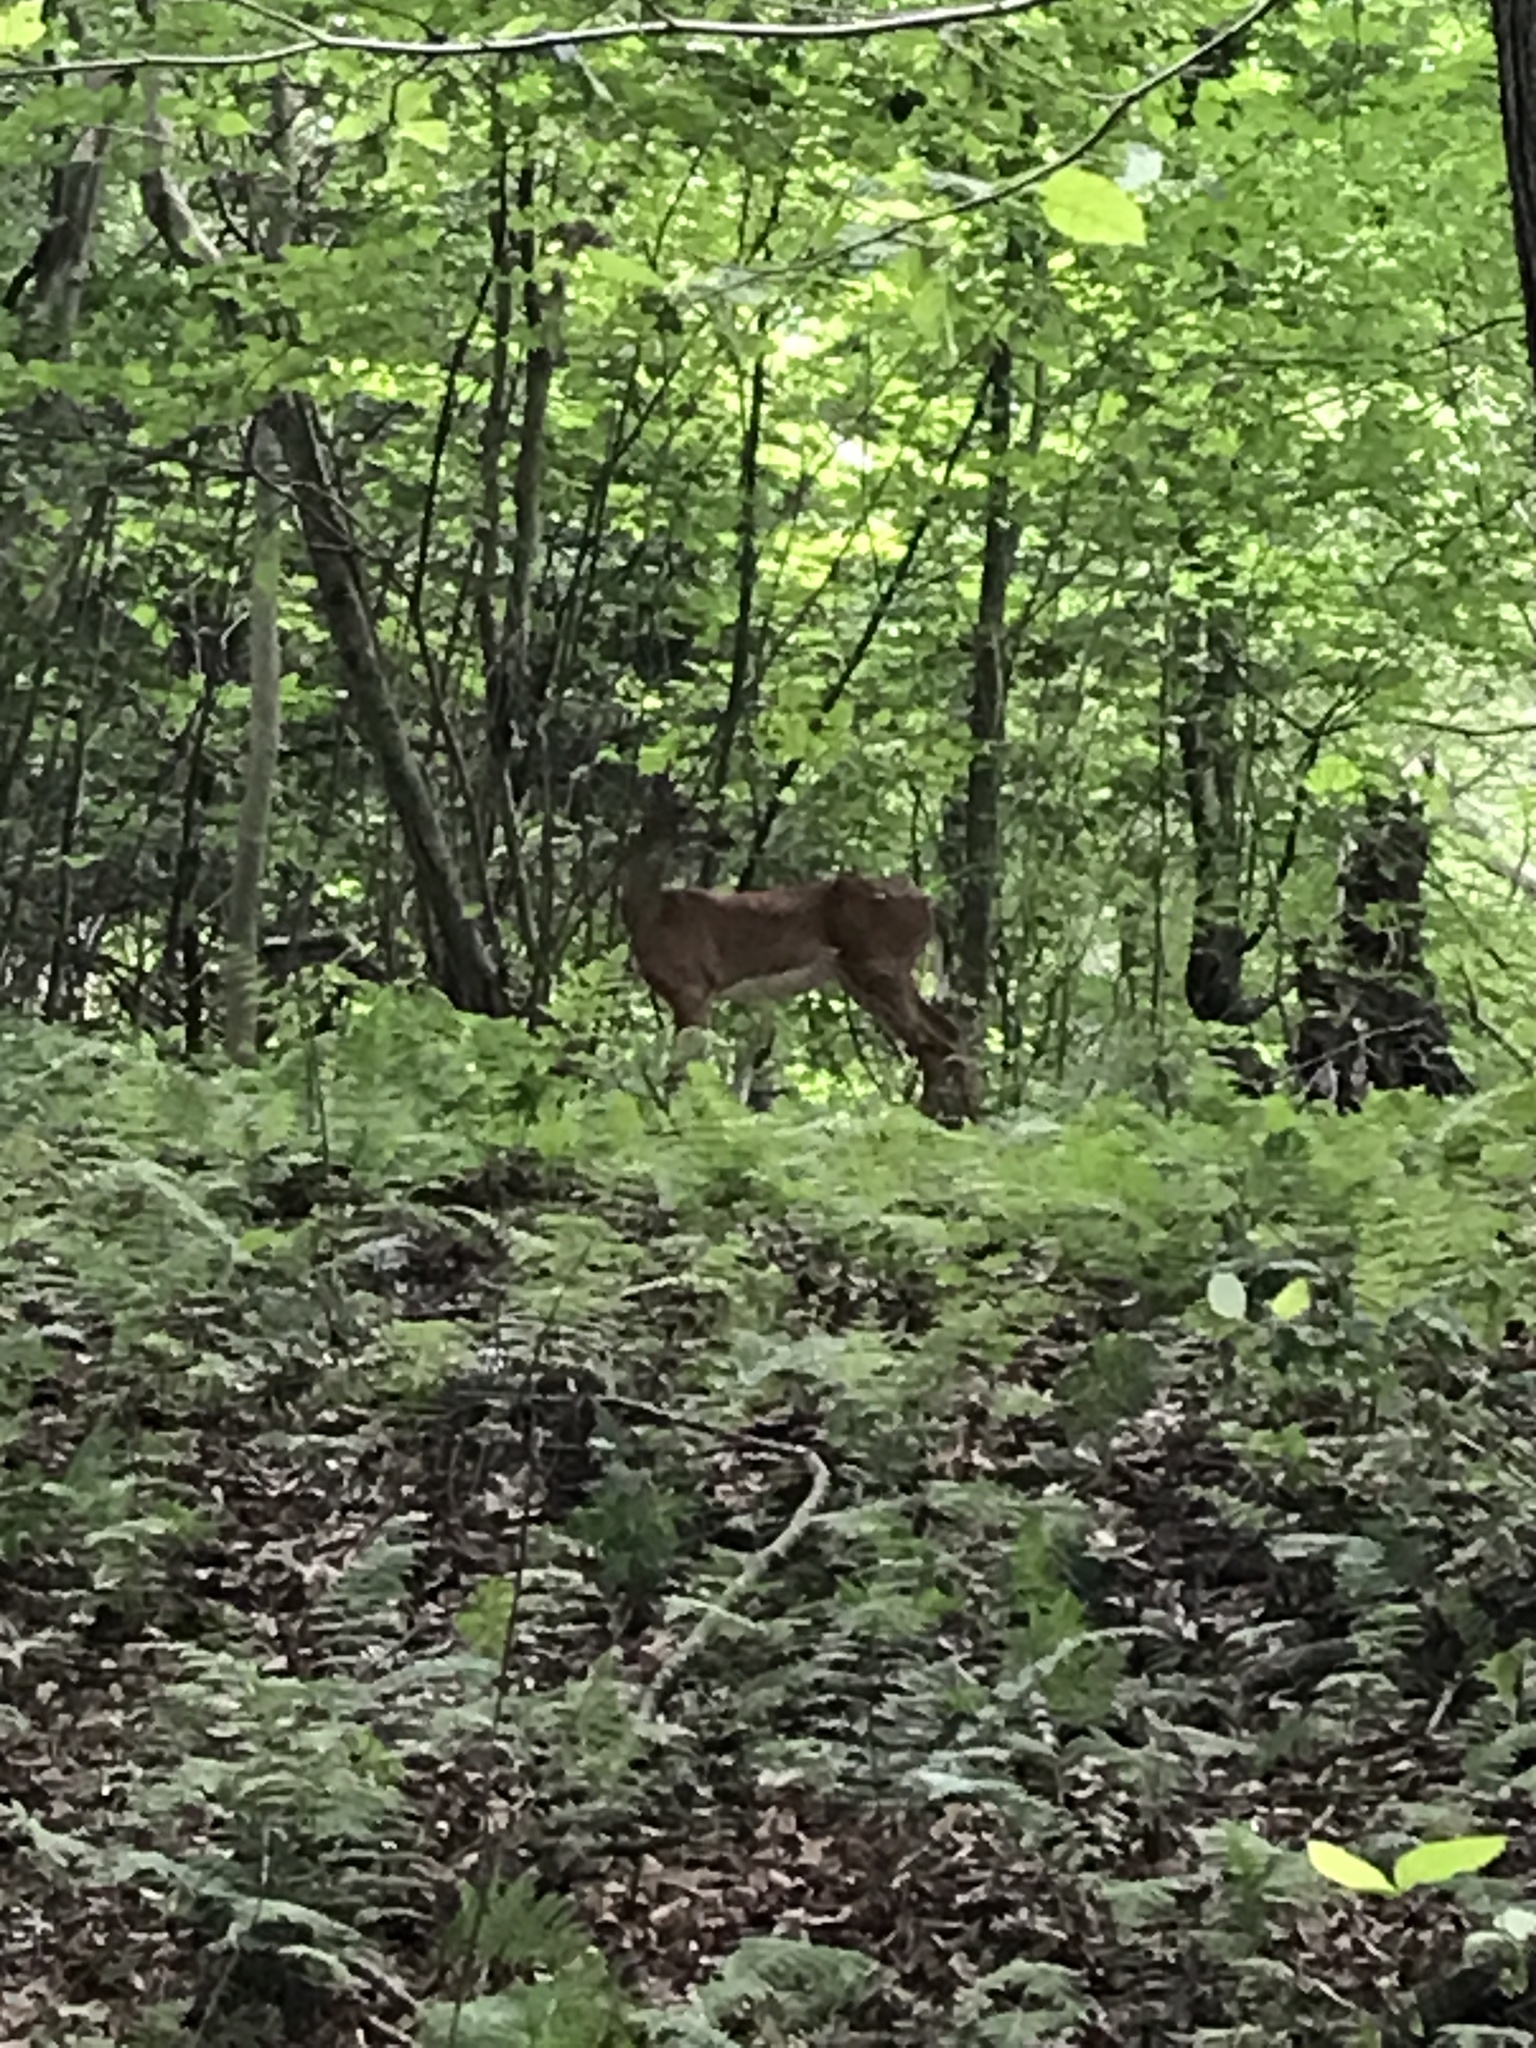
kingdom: Animalia
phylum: Chordata
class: Mammalia
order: Artiodactyla
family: Cervidae
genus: Odocoileus
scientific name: Odocoileus virginianus
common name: White-tailed deer
